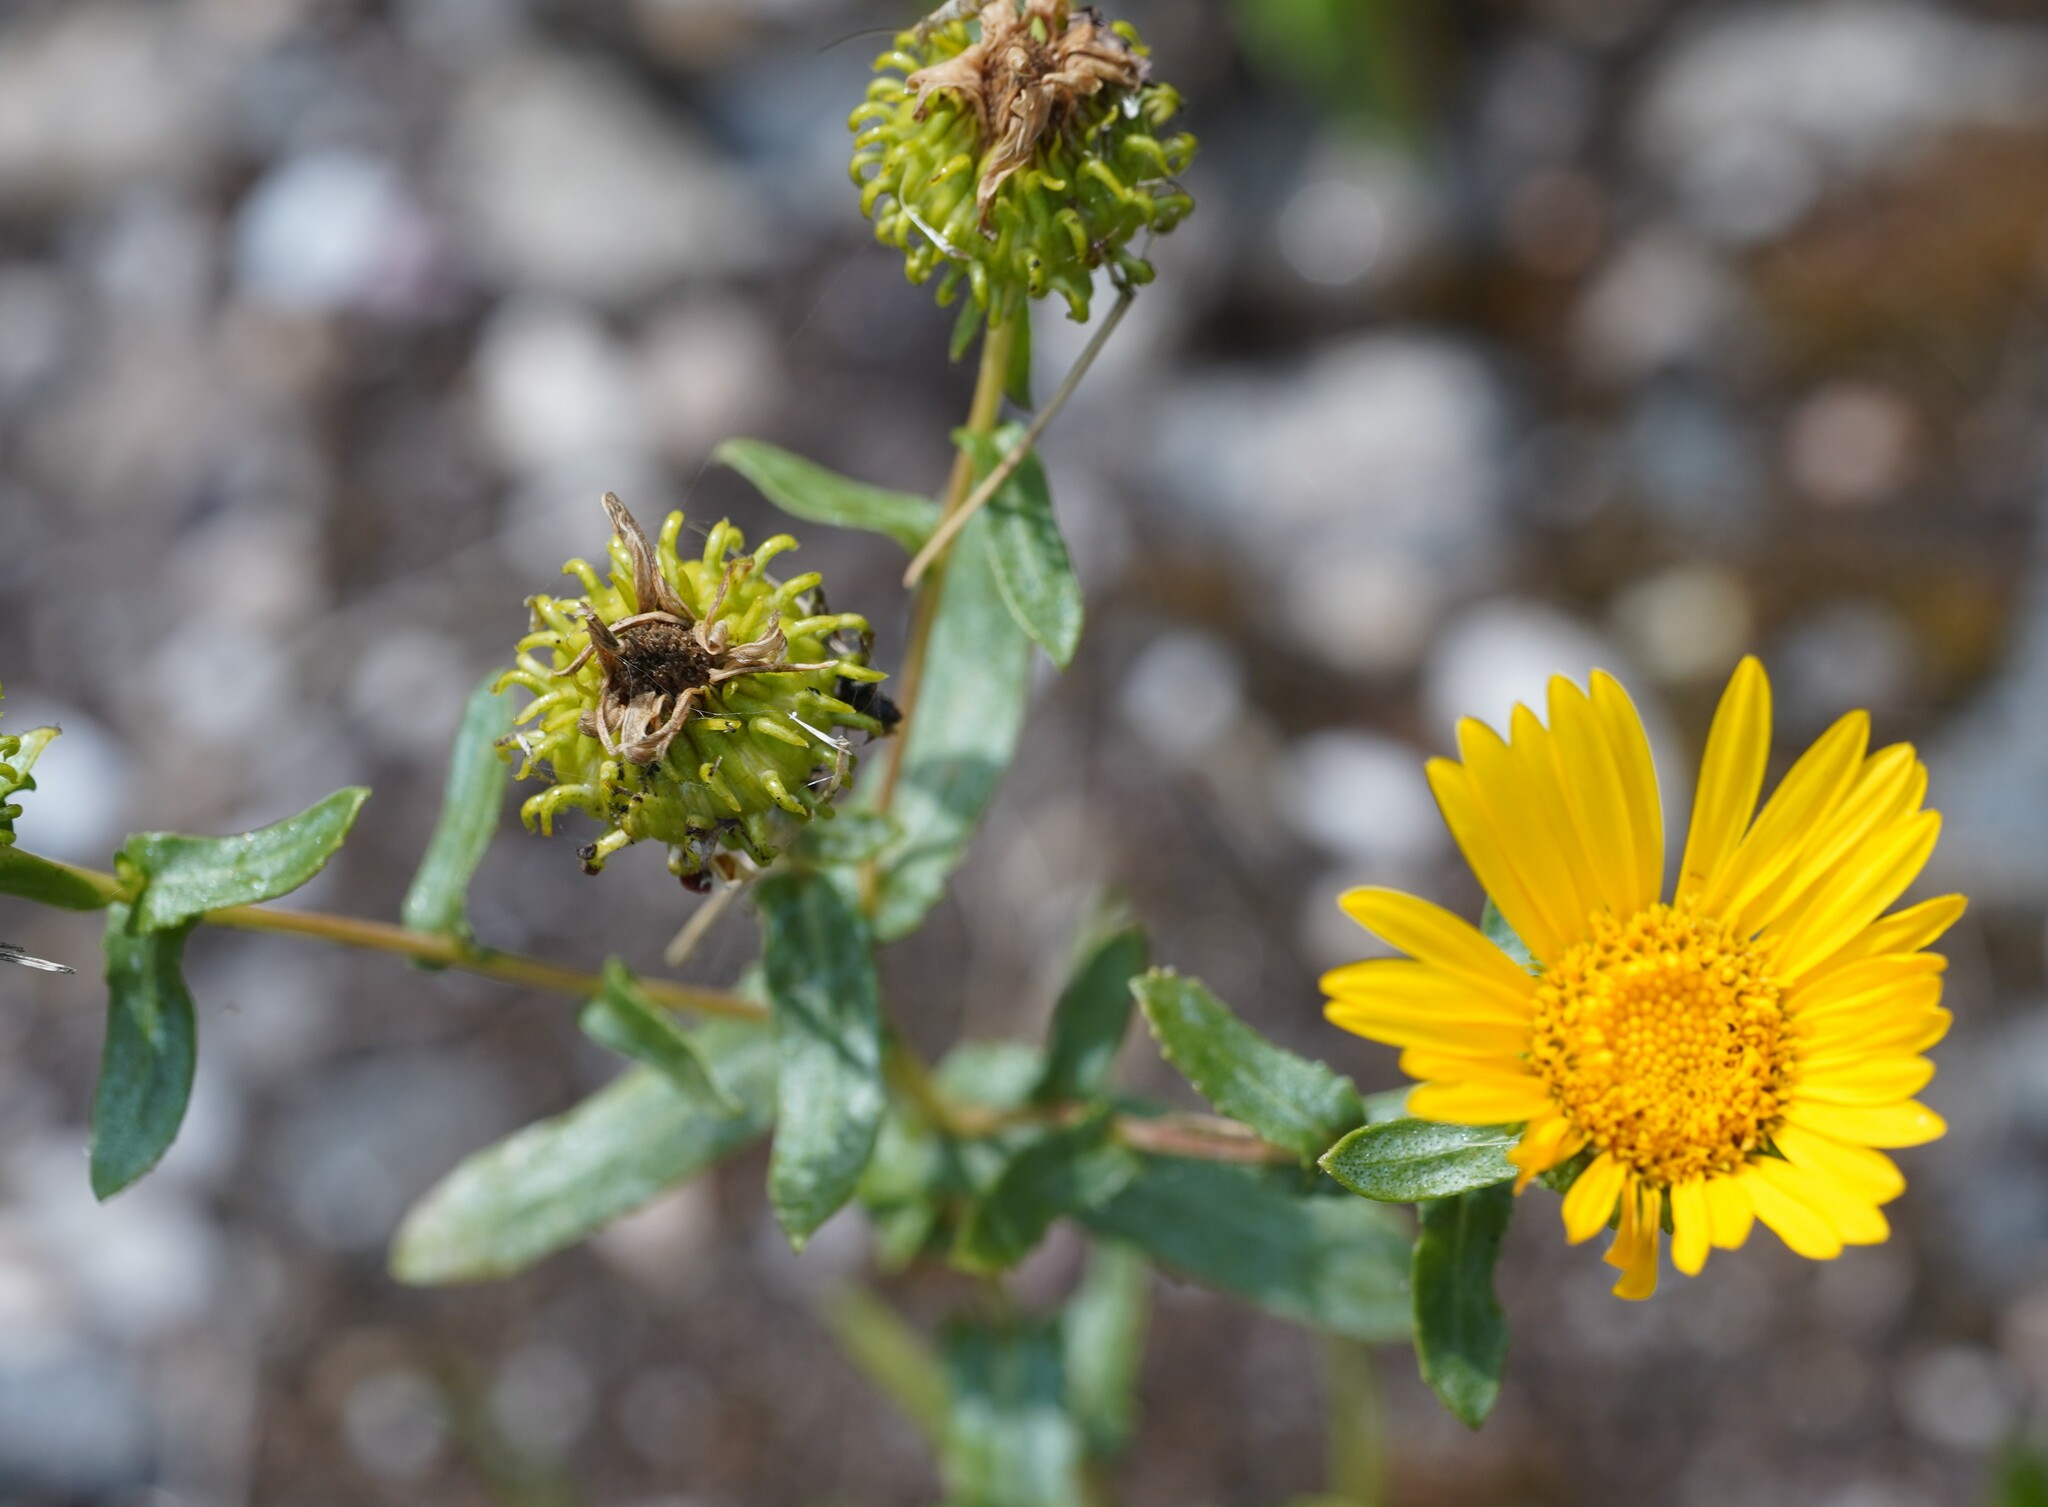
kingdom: Plantae
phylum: Tracheophyta
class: Magnoliopsida
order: Asterales
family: Asteraceae
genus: Grindelia
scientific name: Grindelia squarrosa
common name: Curly-cup gumweed
